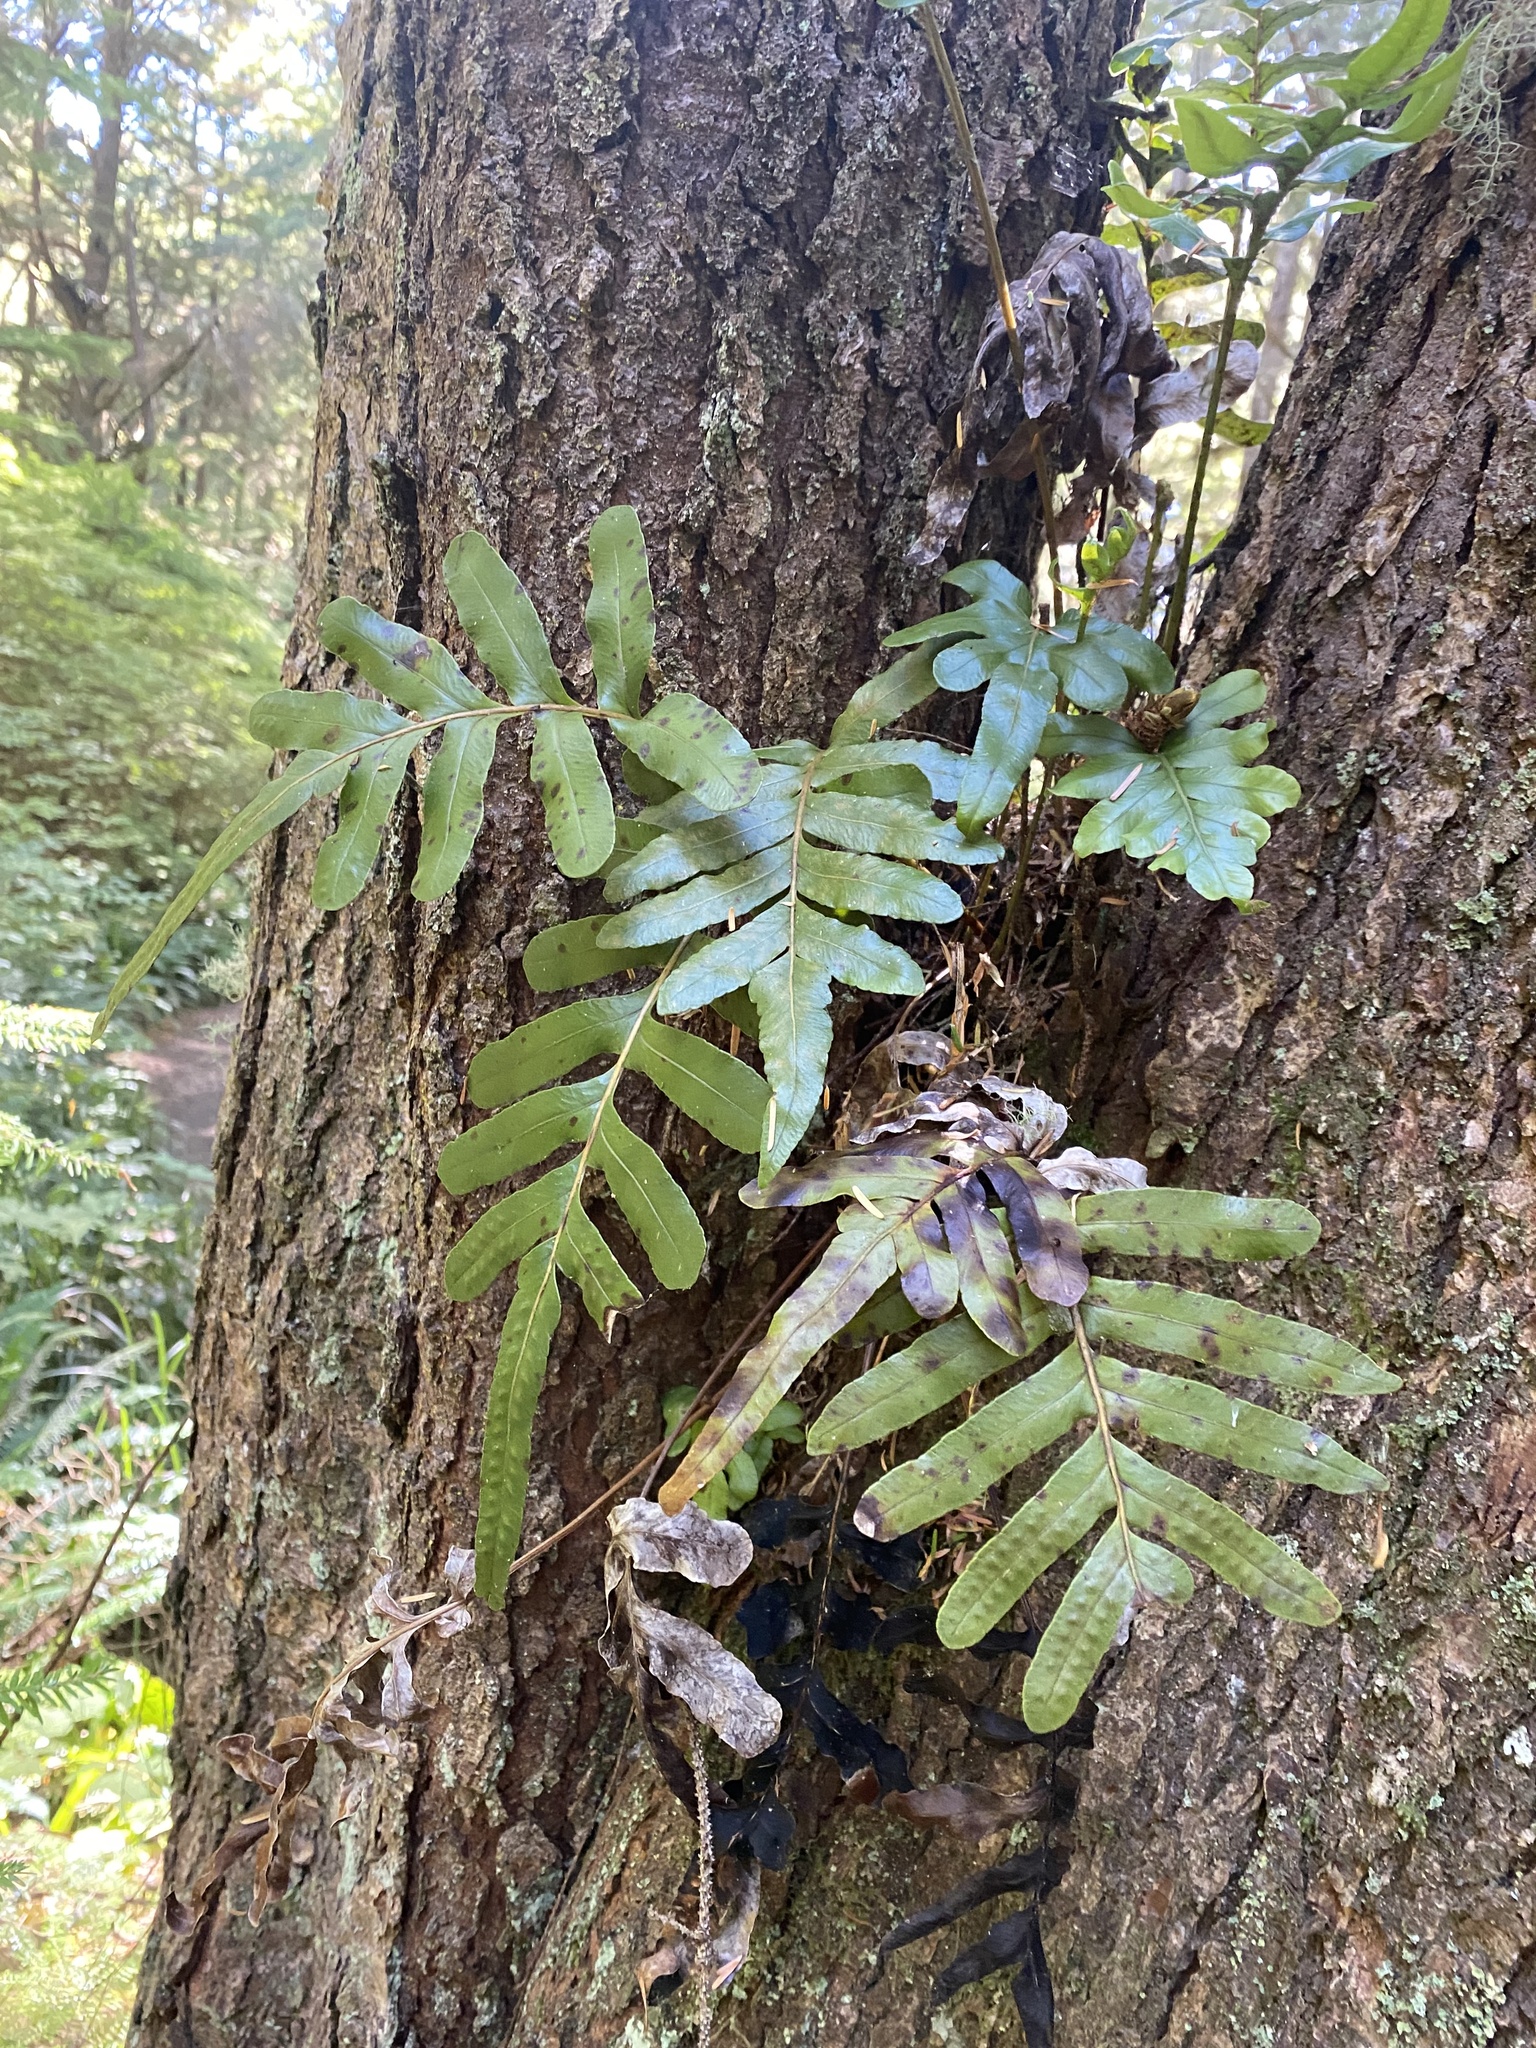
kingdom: Plantae
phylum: Tracheophyta
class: Polypodiopsida
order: Polypodiales
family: Polypodiaceae
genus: Polypodium
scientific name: Polypodium scouleri
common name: Scouler's polypody
